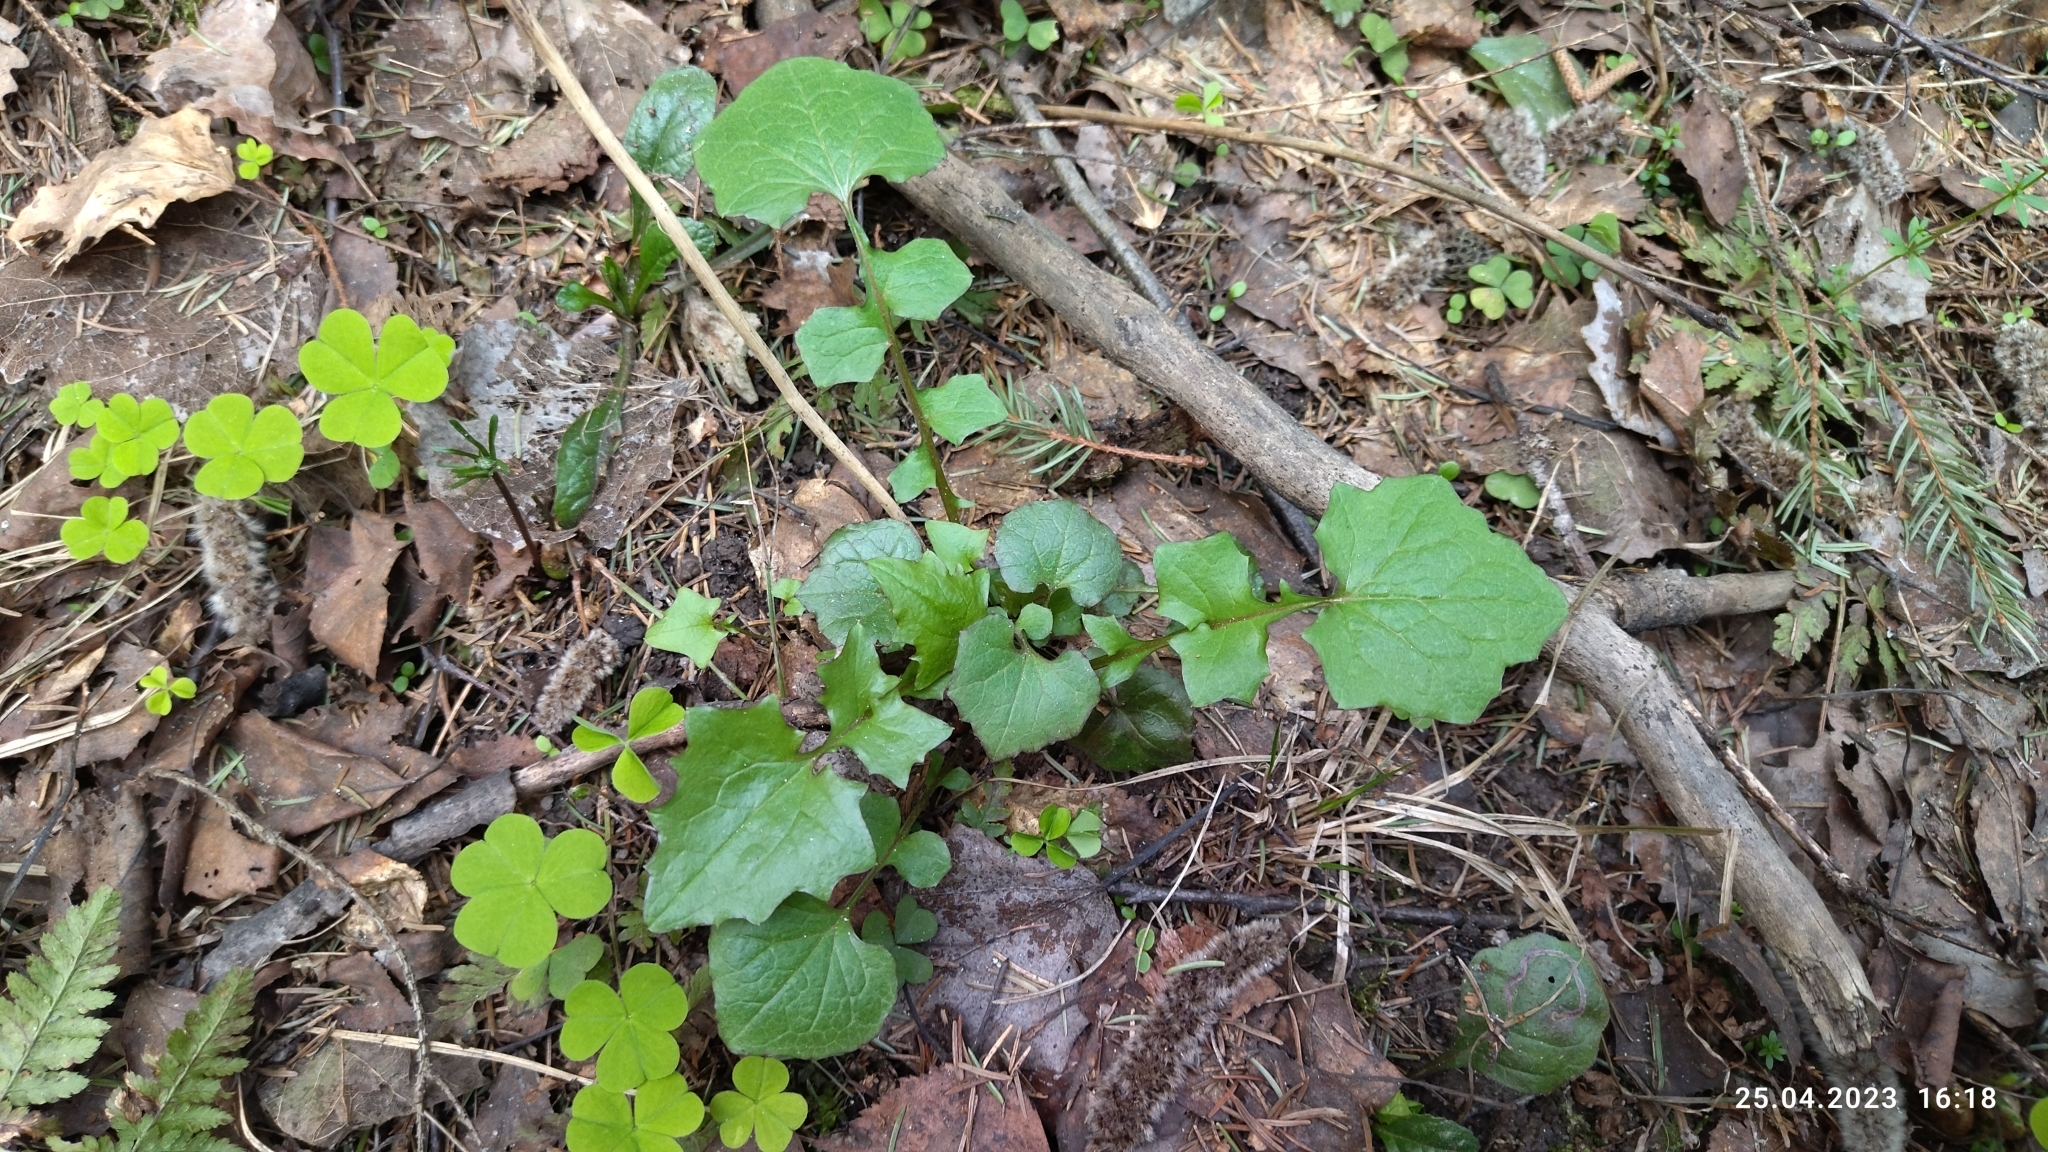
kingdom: Plantae
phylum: Tracheophyta
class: Magnoliopsida
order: Asterales
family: Asteraceae
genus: Mycelis
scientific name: Mycelis muralis
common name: Wall lettuce
